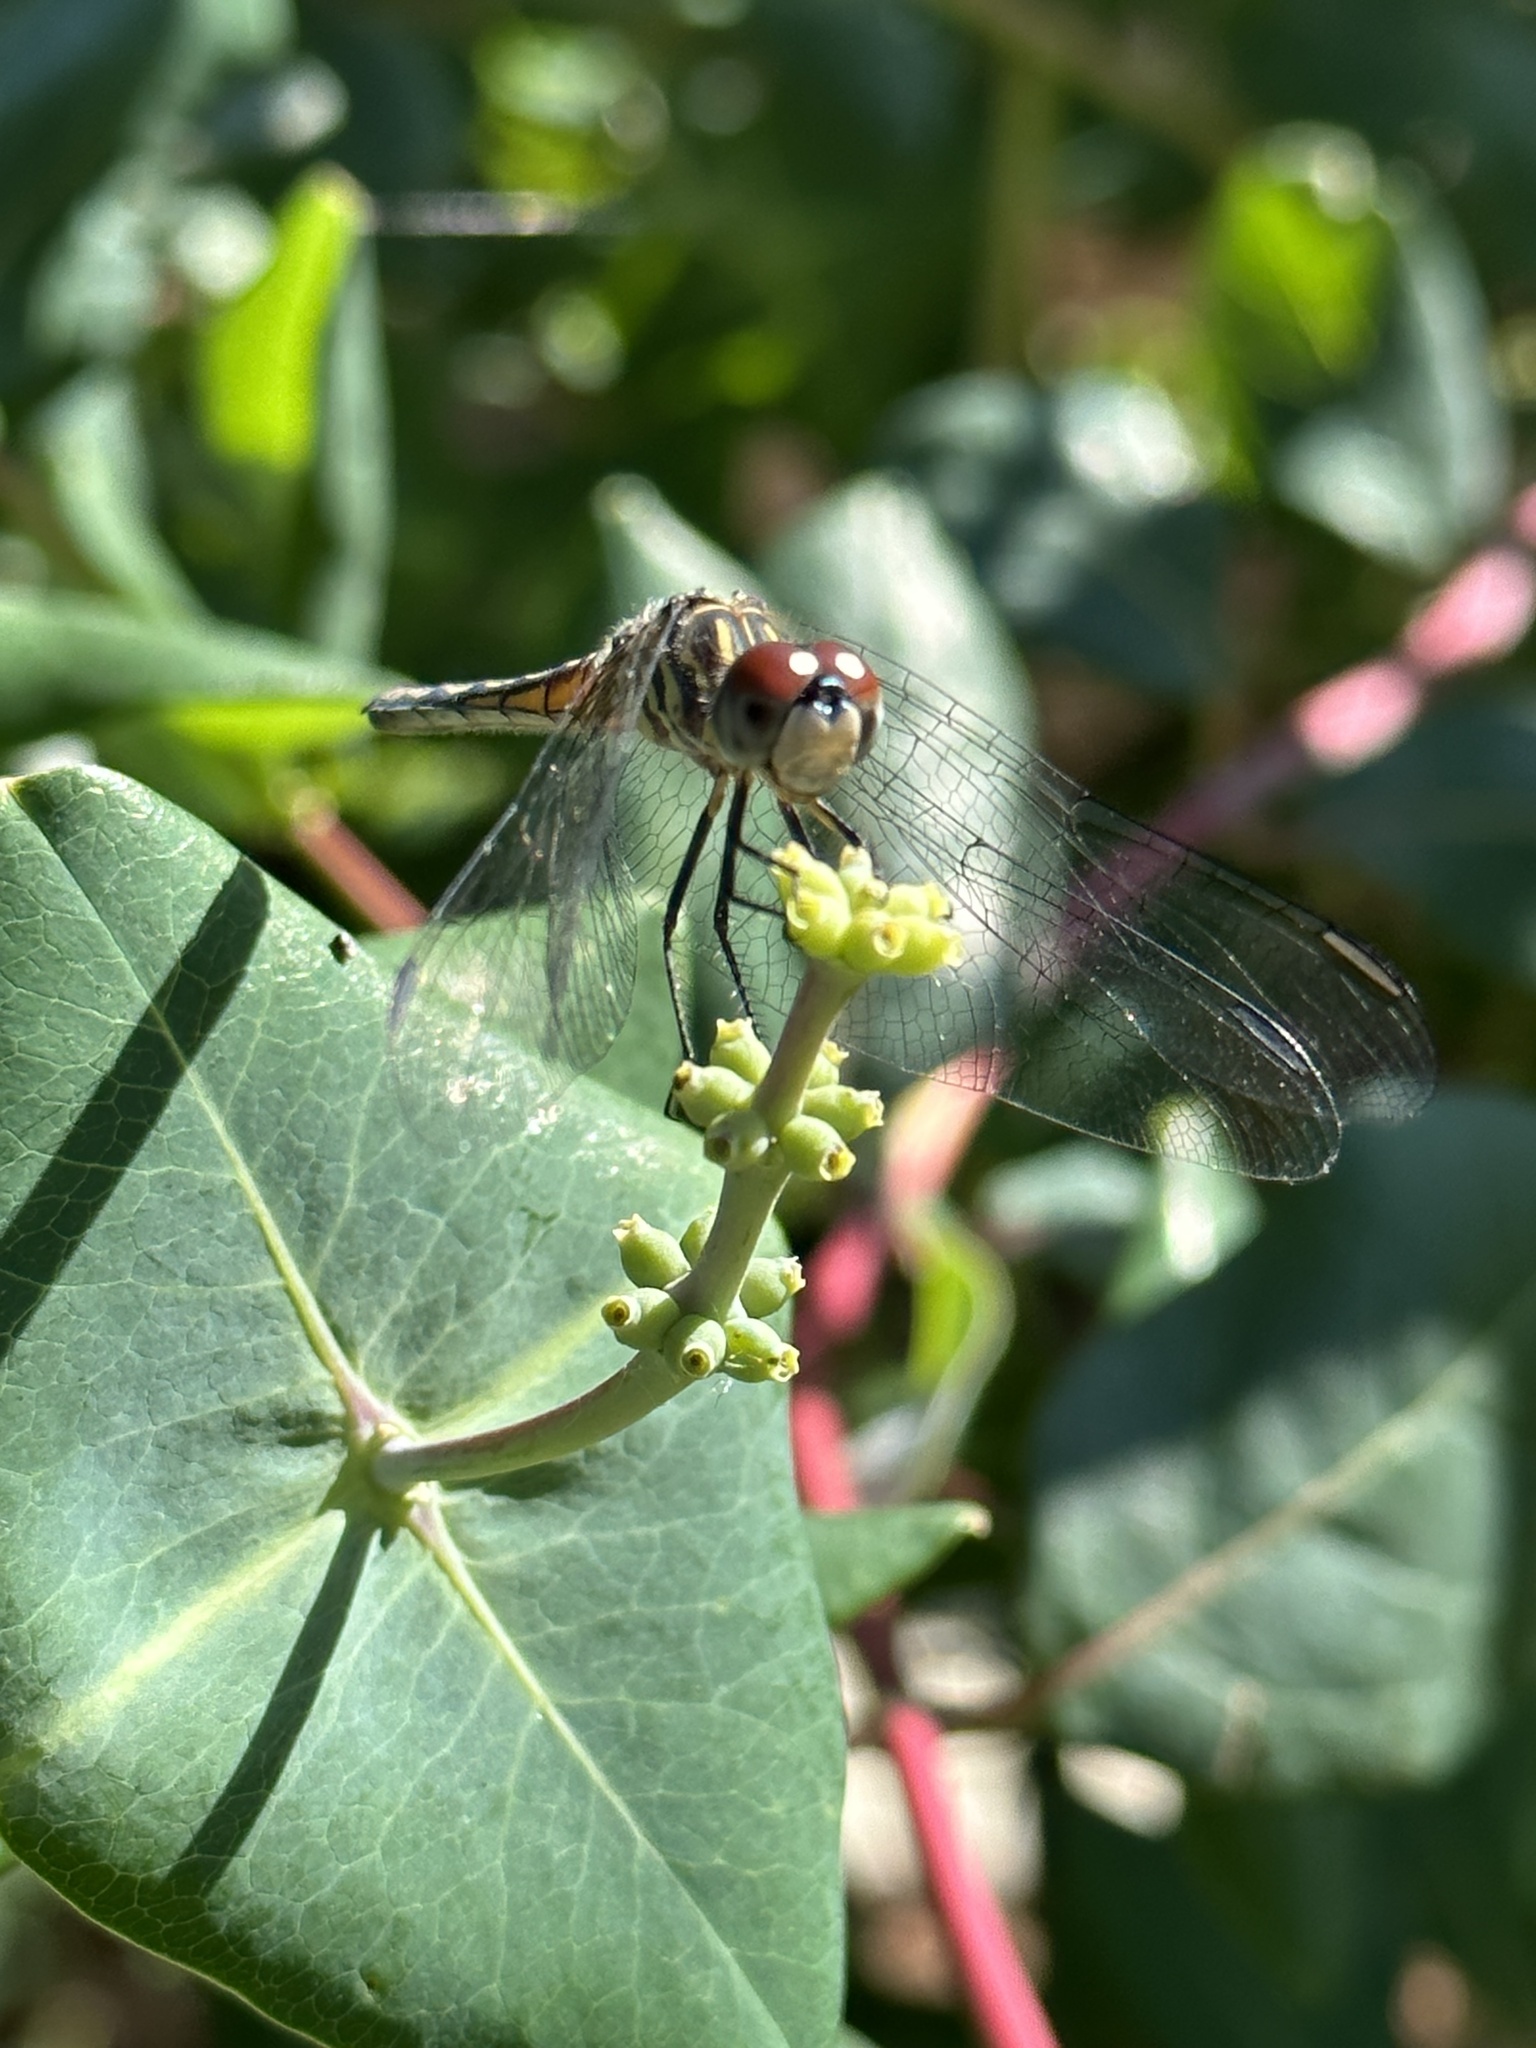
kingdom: Animalia
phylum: Arthropoda
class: Insecta
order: Odonata
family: Libellulidae
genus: Pachydiplax
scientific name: Pachydiplax longipennis
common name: Blue dasher
